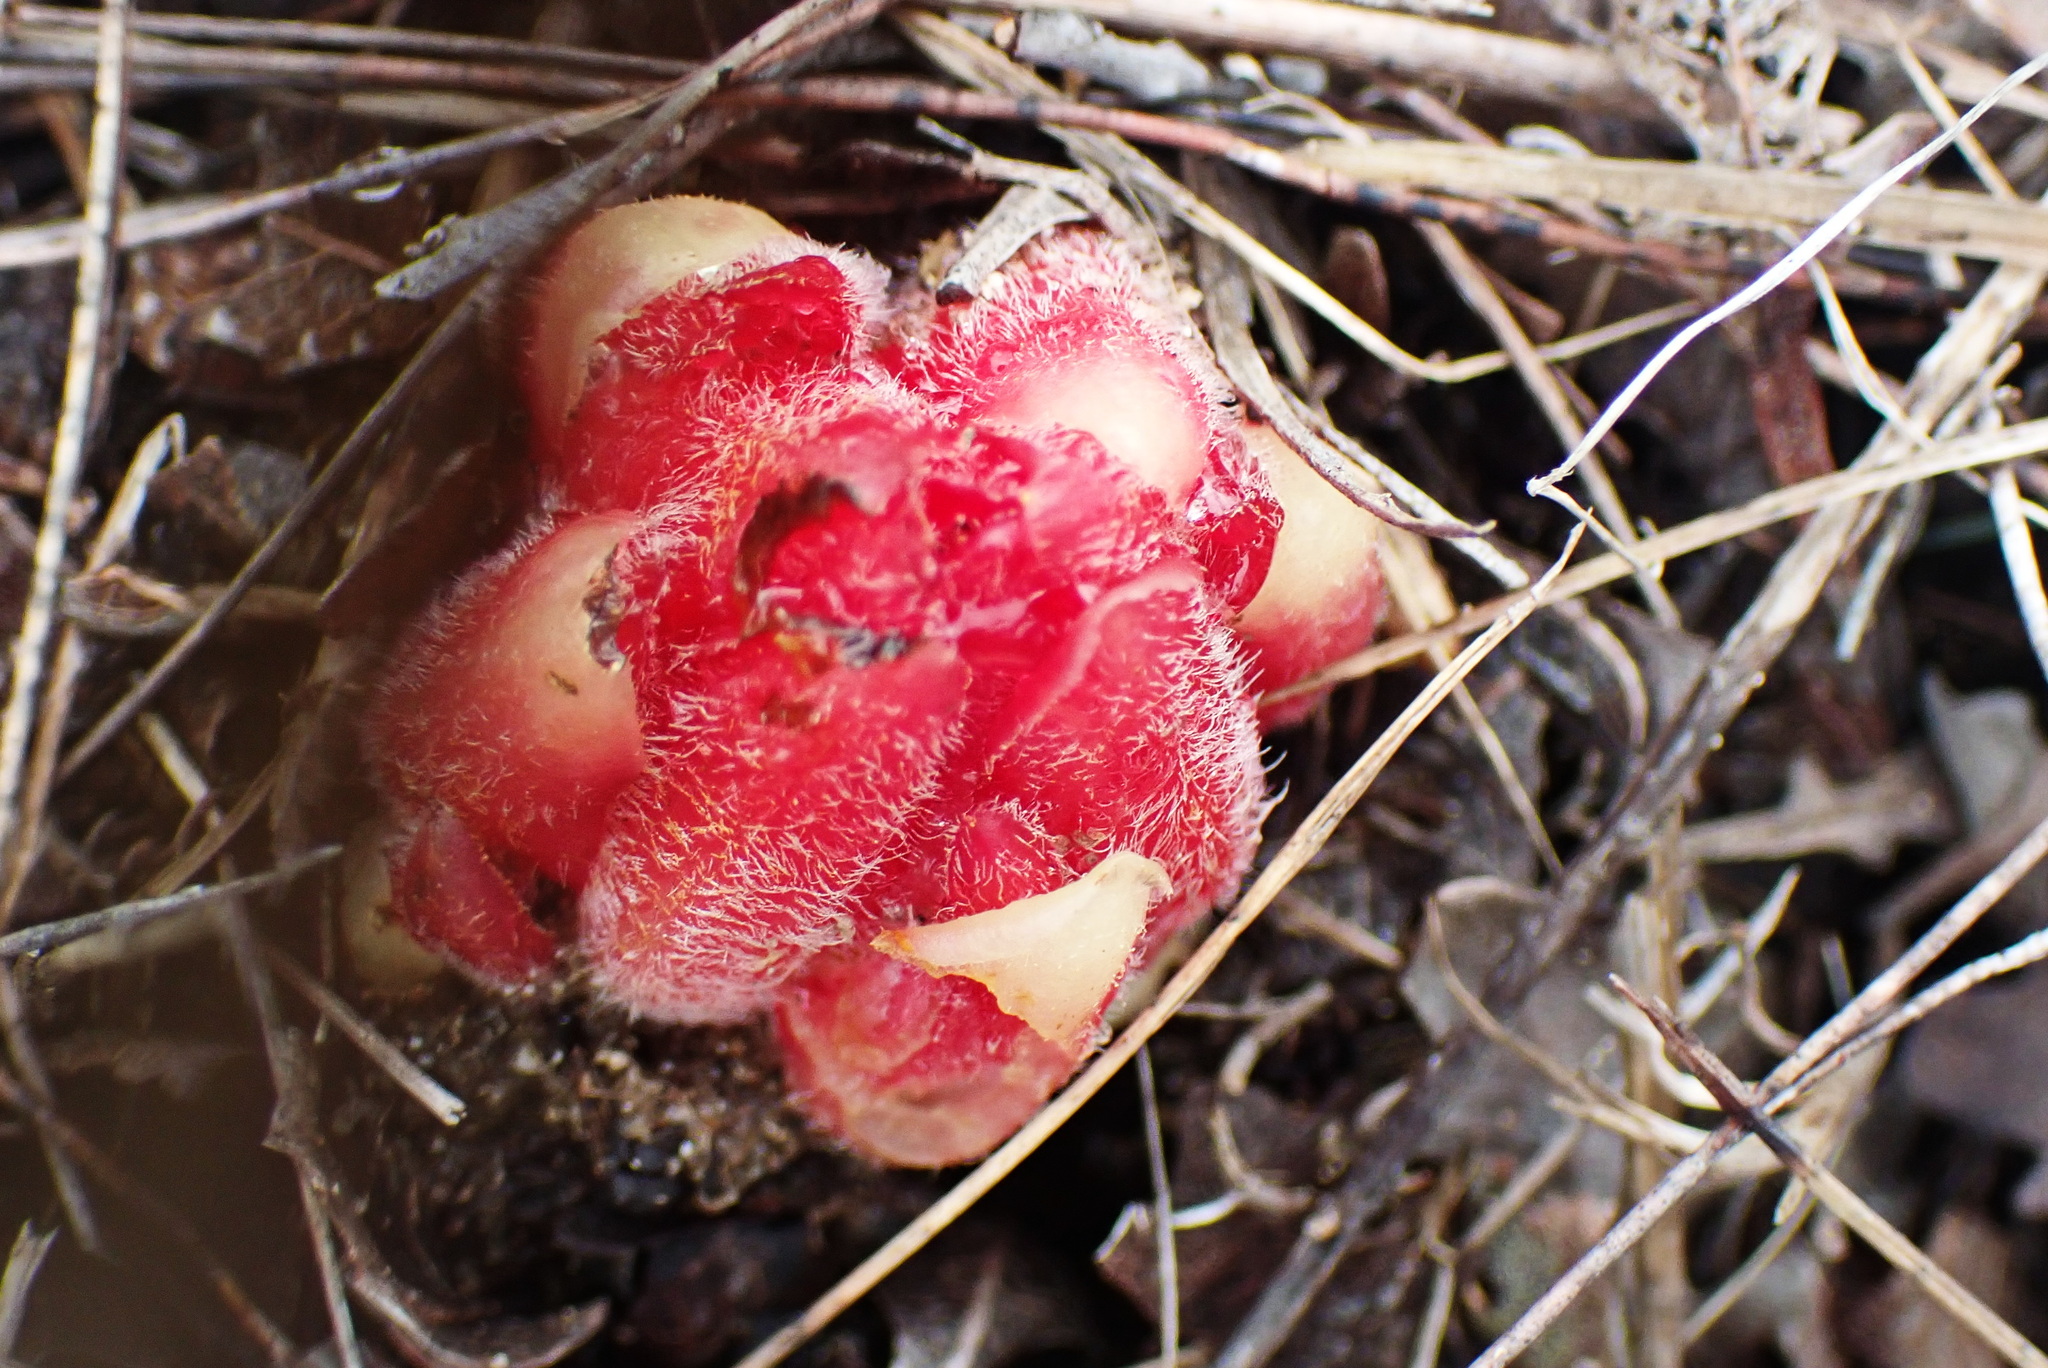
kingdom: Plantae
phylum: Tracheophyta
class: Magnoliopsida
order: Lamiales
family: Orobanchaceae
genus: Hyobanche
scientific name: Hyobanche robusta
